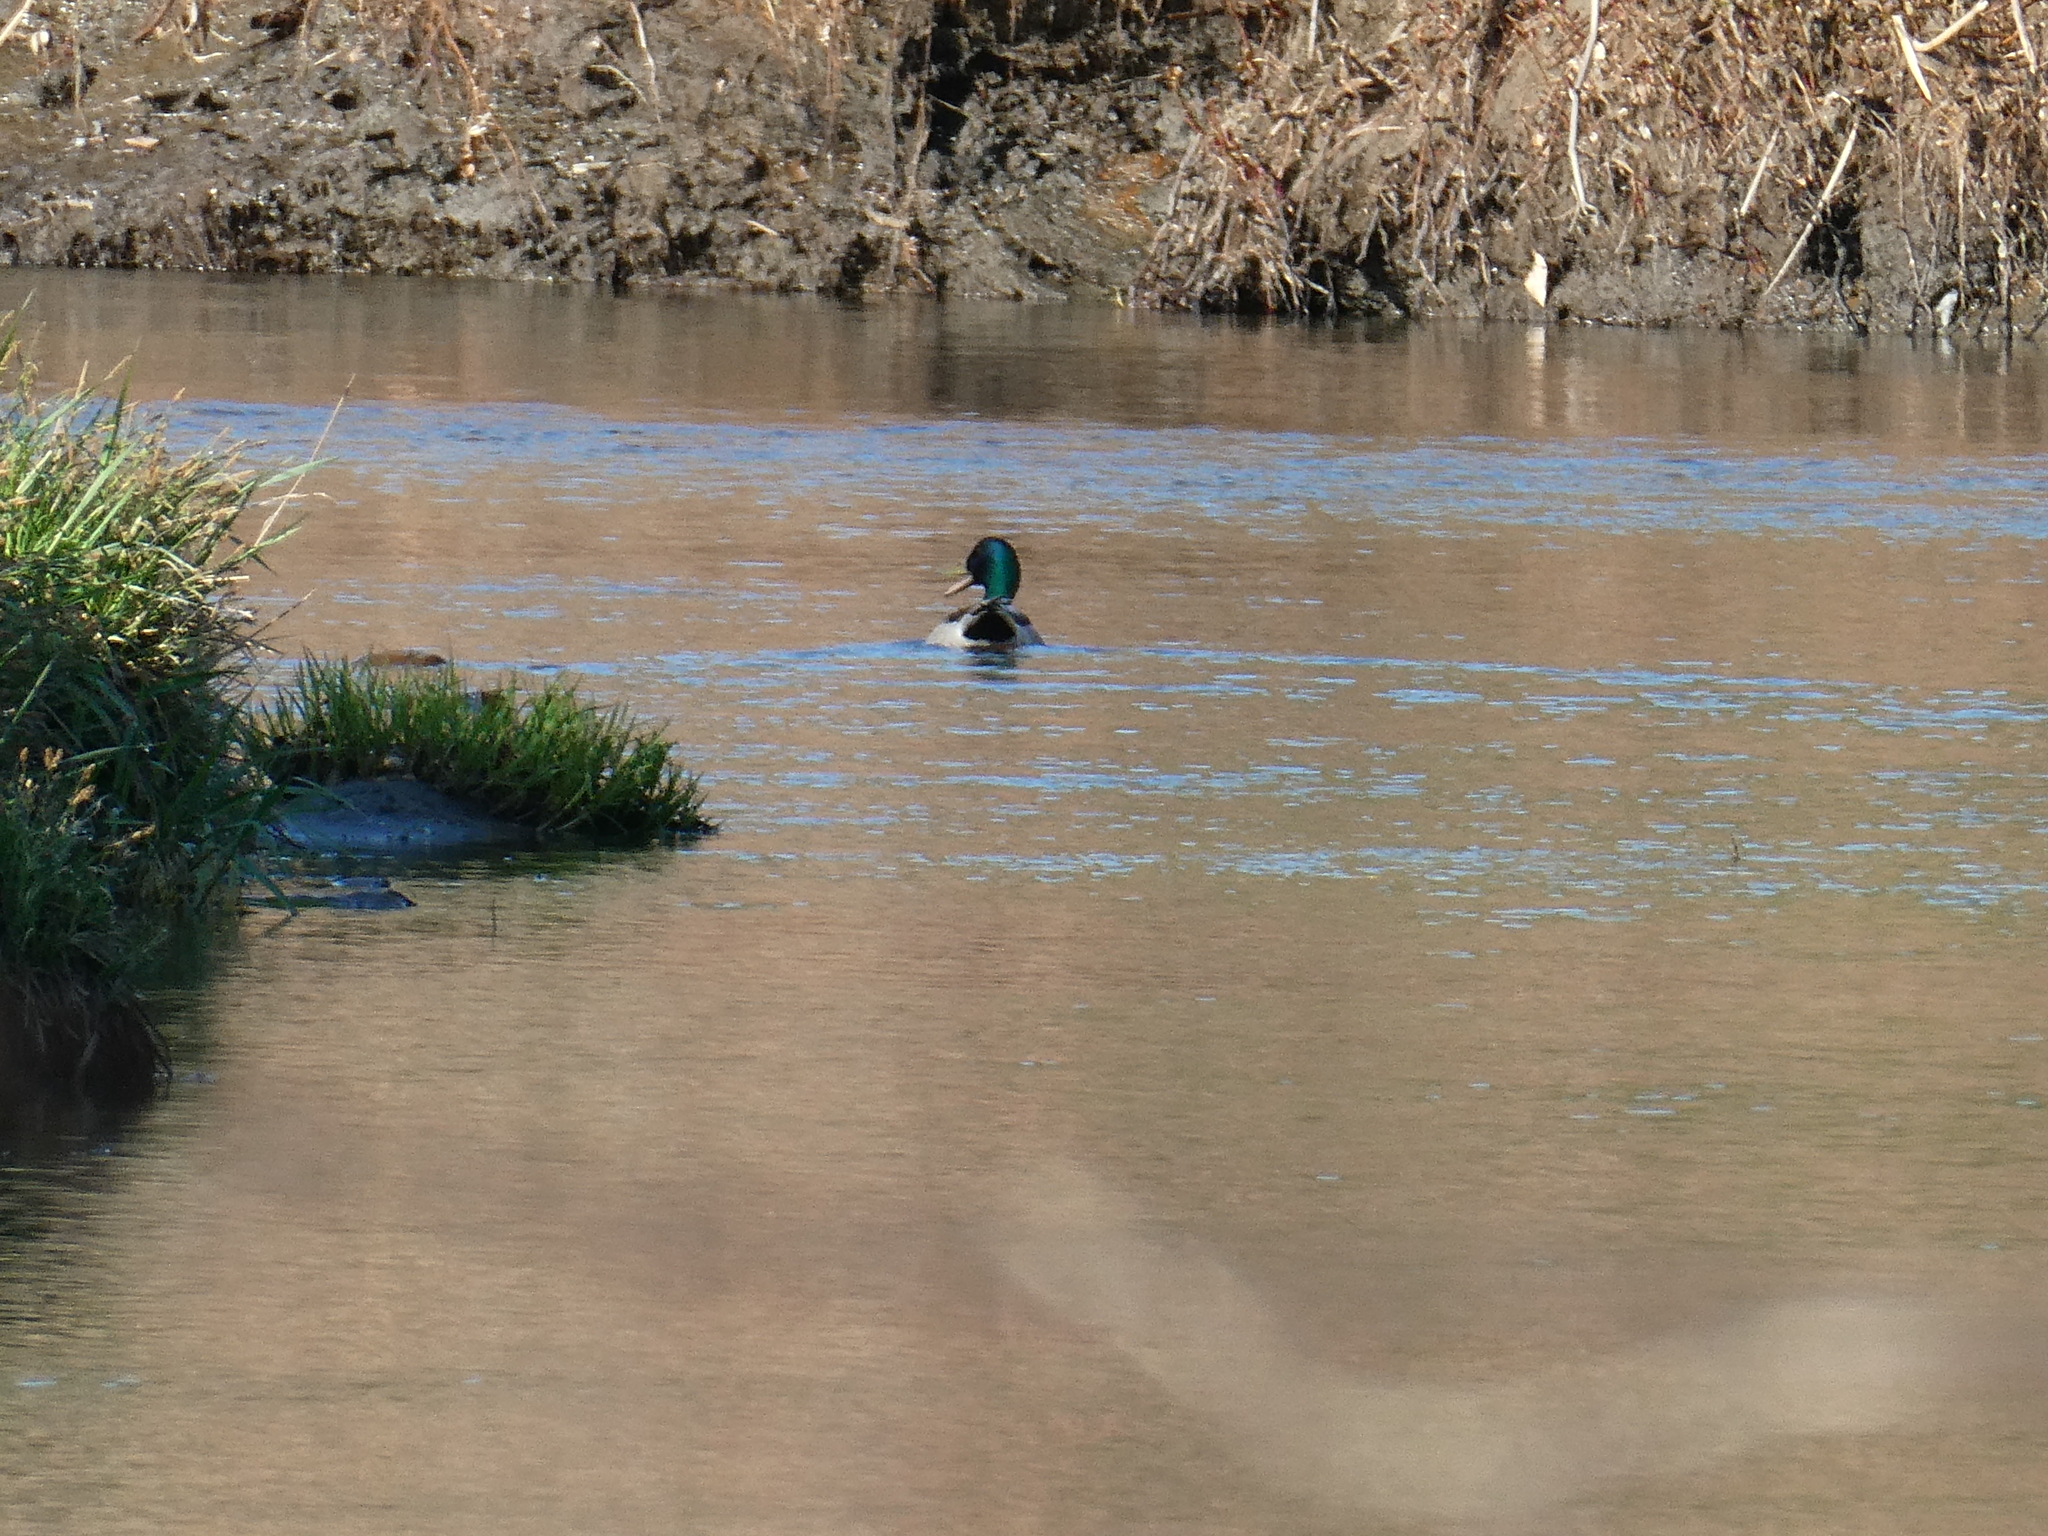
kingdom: Animalia
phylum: Chordata
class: Aves
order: Anseriformes
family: Anatidae
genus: Anas
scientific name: Anas platyrhynchos
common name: Mallard
